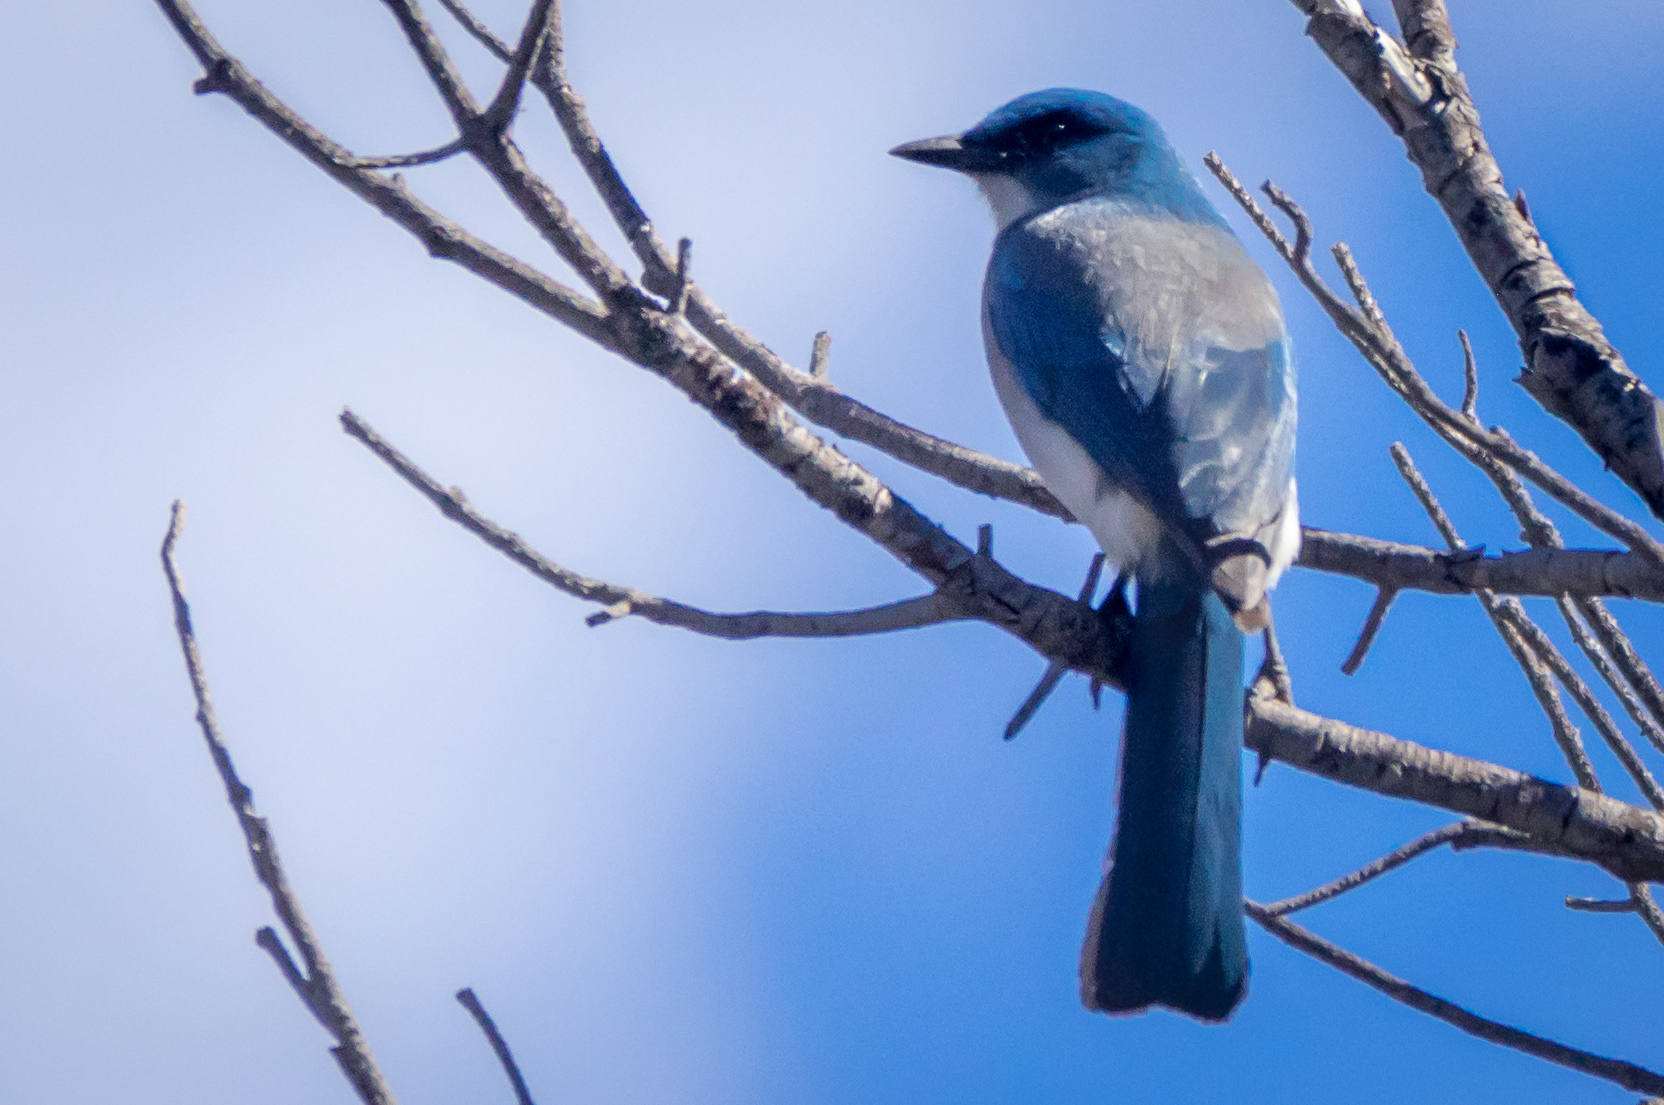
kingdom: Animalia
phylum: Chordata
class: Aves
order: Passeriformes
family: Corvidae
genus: Aphelocoma
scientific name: Aphelocoma wollweberi
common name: Mexican jay
